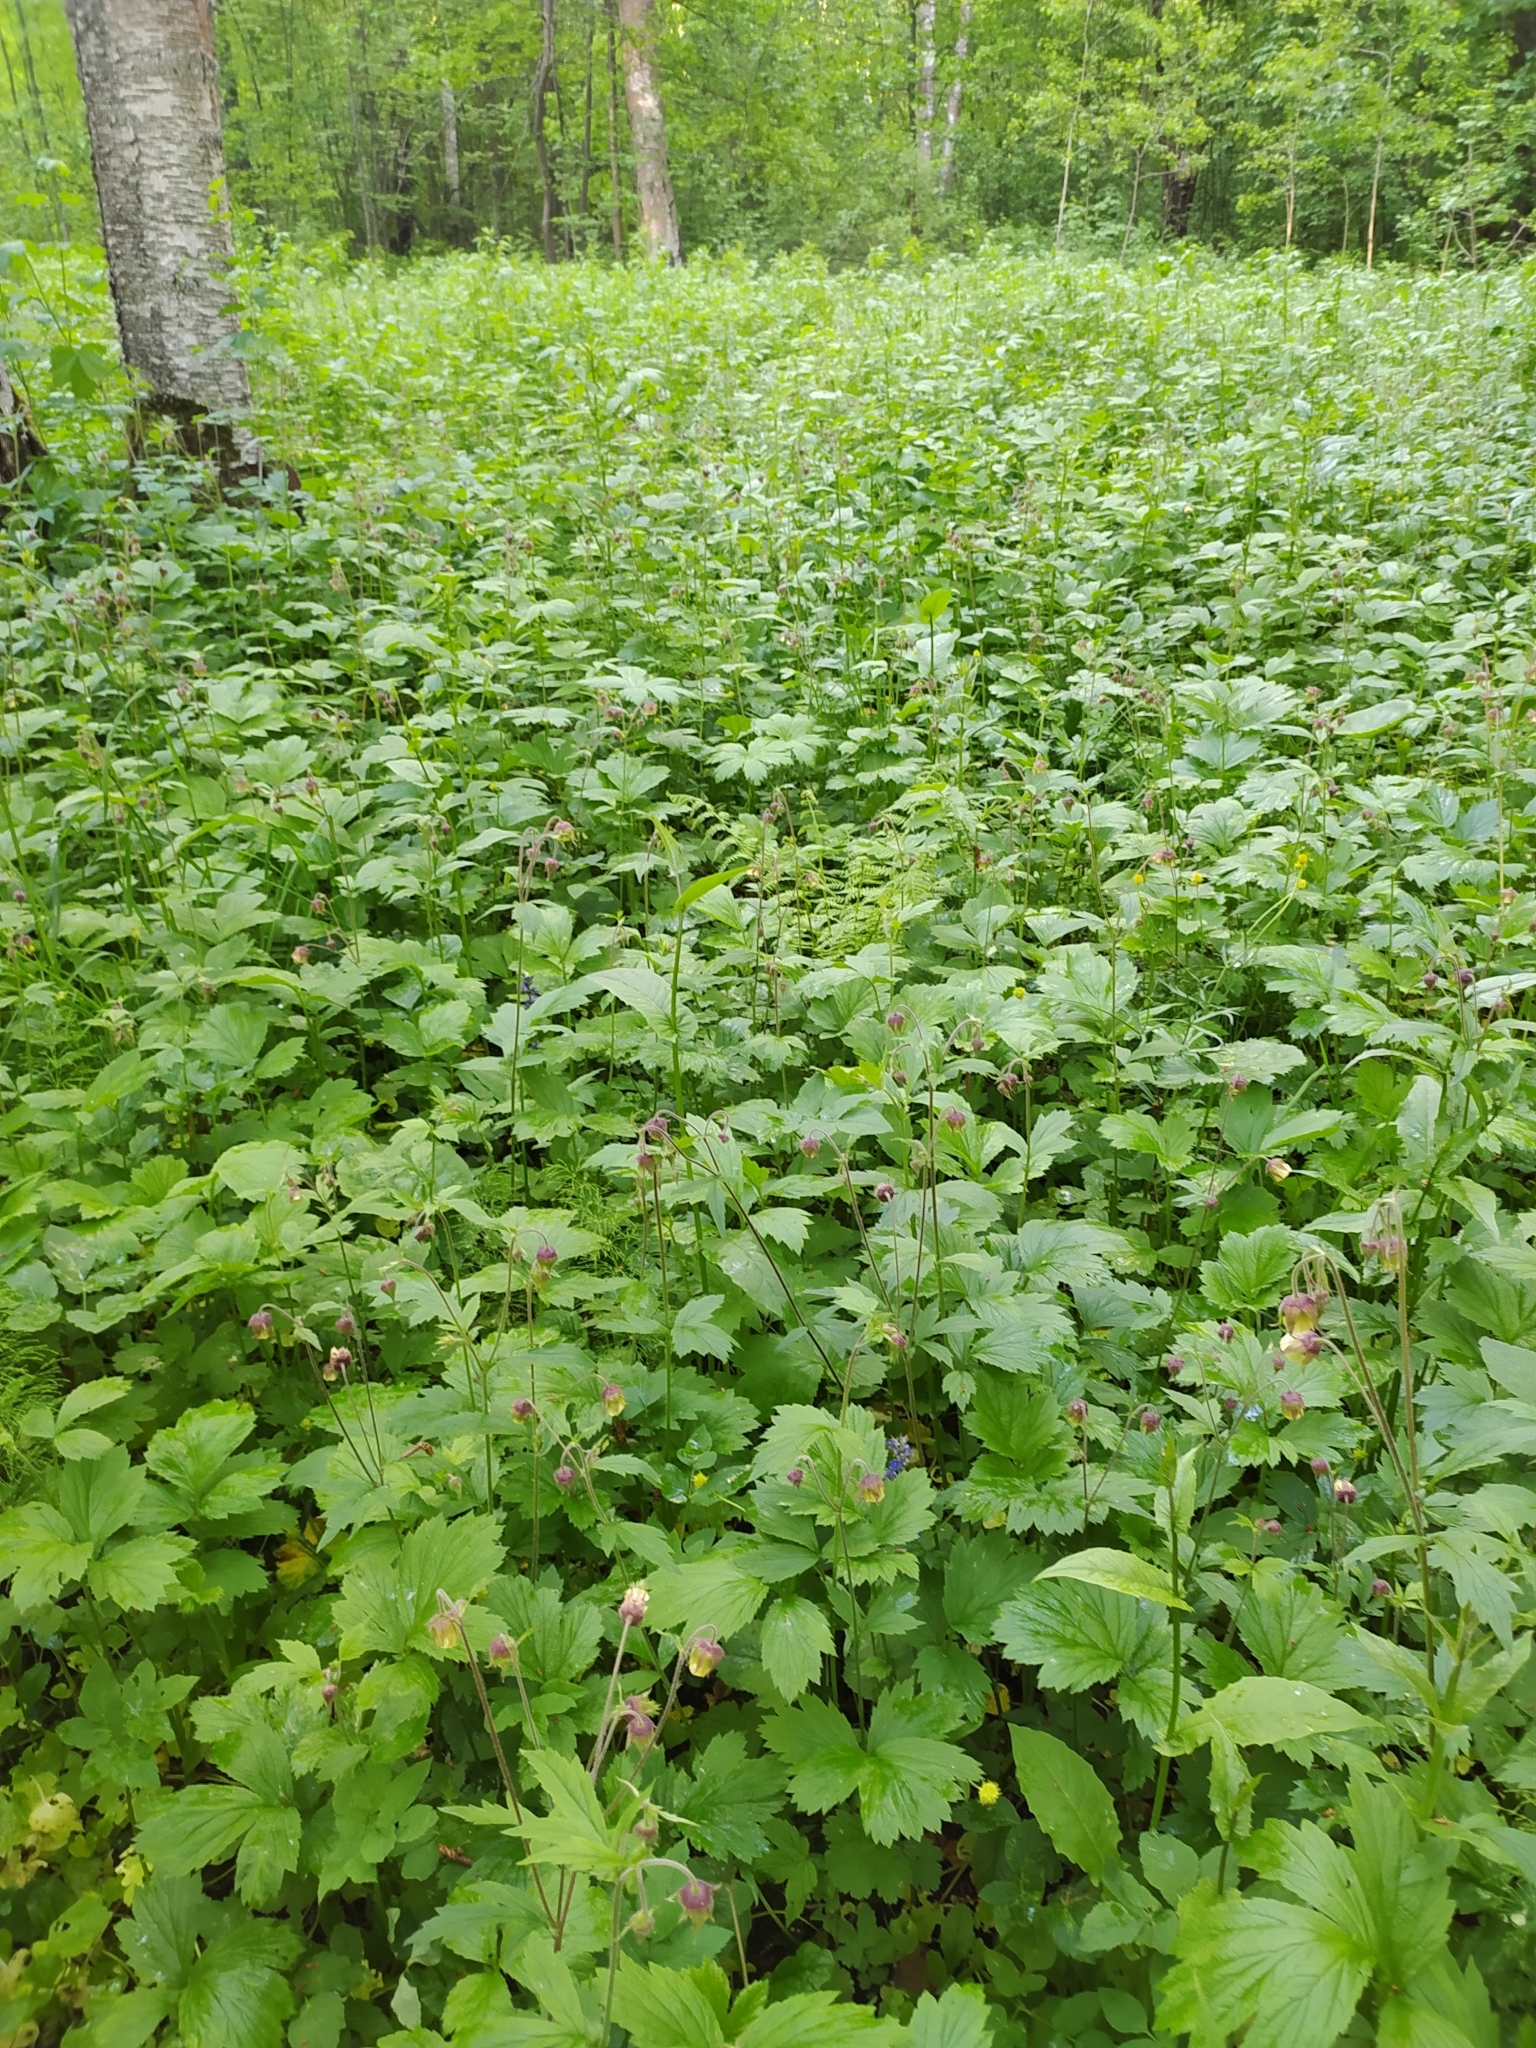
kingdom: Plantae
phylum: Tracheophyta
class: Magnoliopsida
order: Rosales
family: Rosaceae
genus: Geum
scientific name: Geum rivale
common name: Water avens
